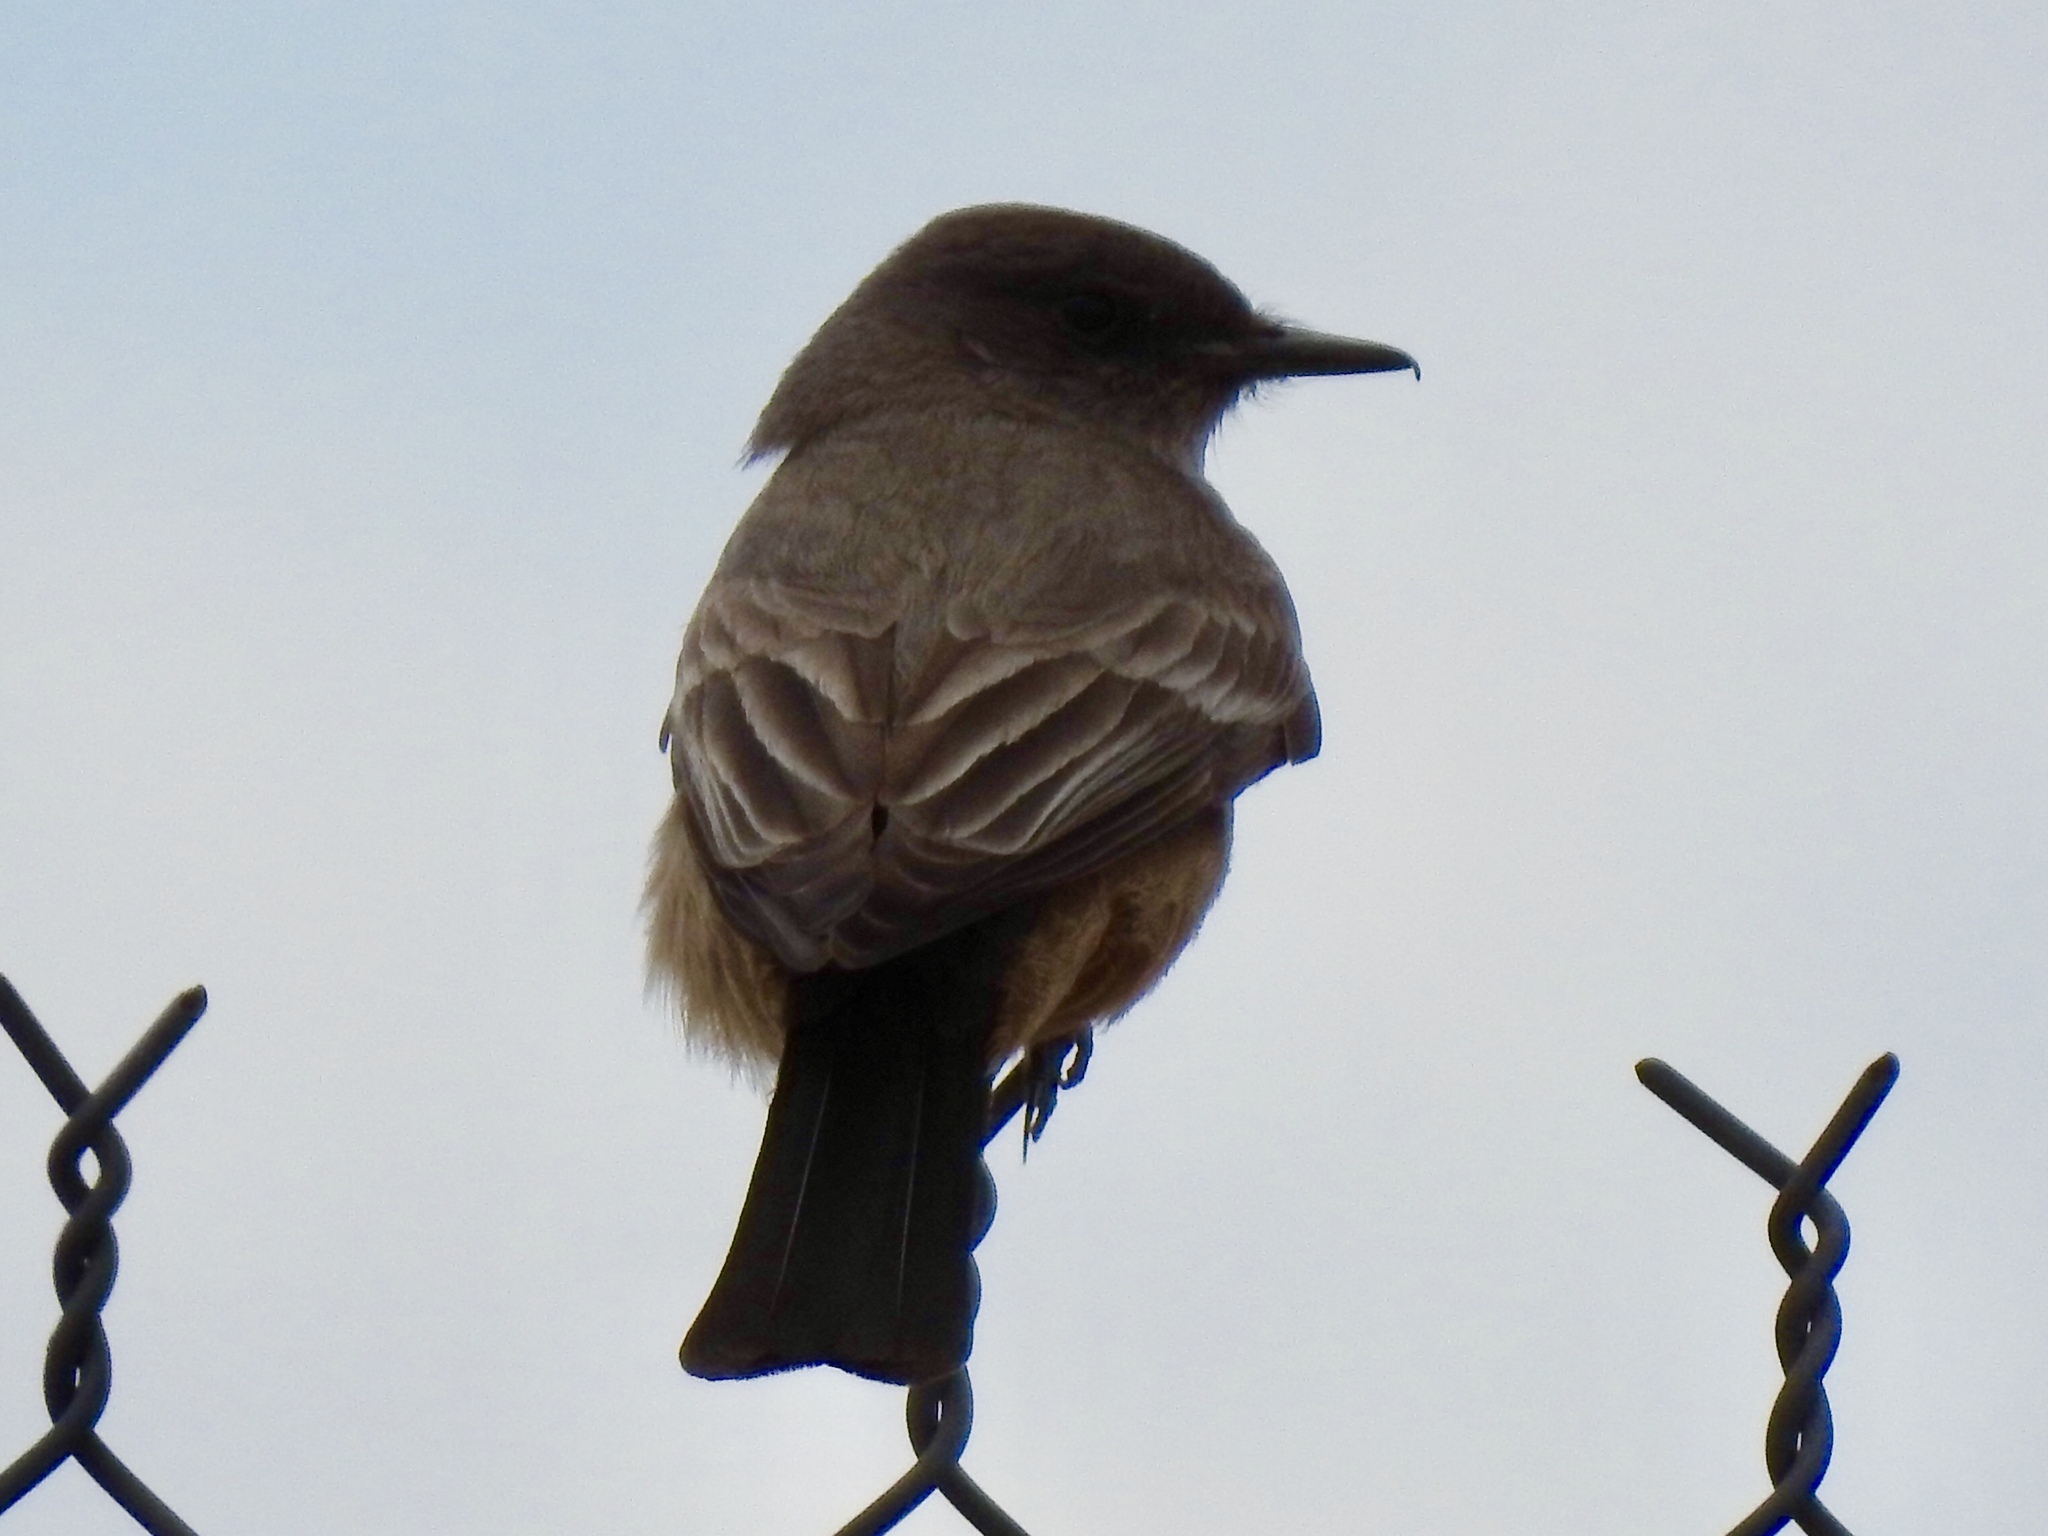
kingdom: Animalia
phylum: Chordata
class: Aves
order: Passeriformes
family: Tyrannidae
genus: Sayornis
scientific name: Sayornis saya
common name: Say's phoebe
